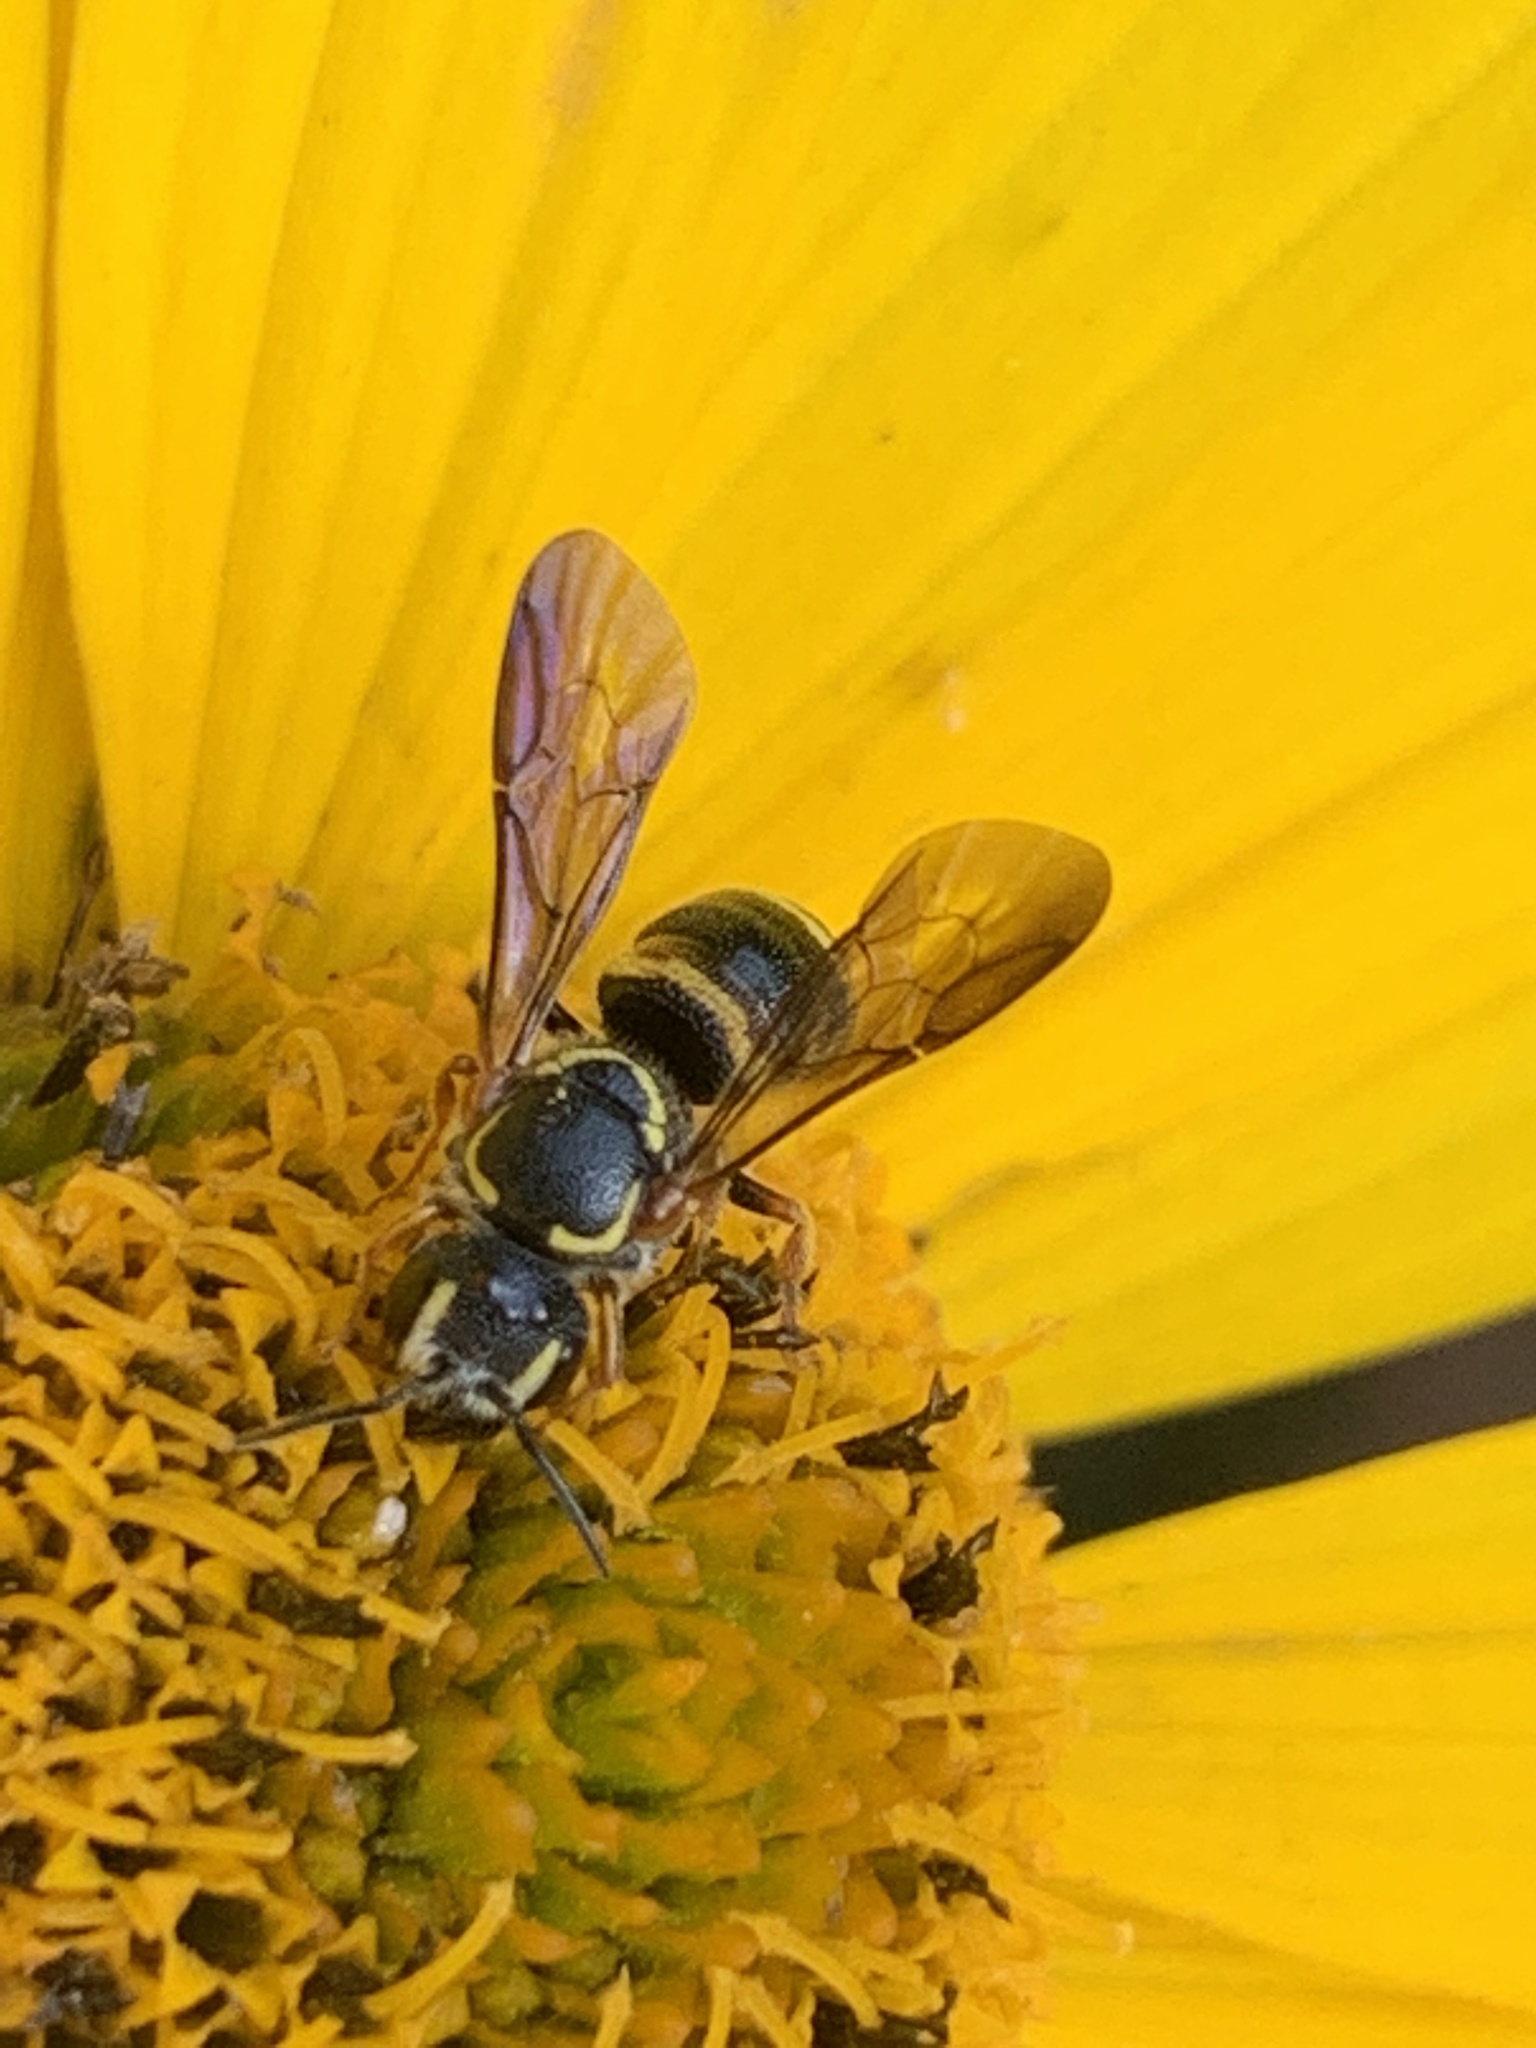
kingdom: Animalia
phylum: Arthropoda
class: Insecta
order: Hymenoptera
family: Megachilidae
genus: Stelis
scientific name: Stelis louisae
